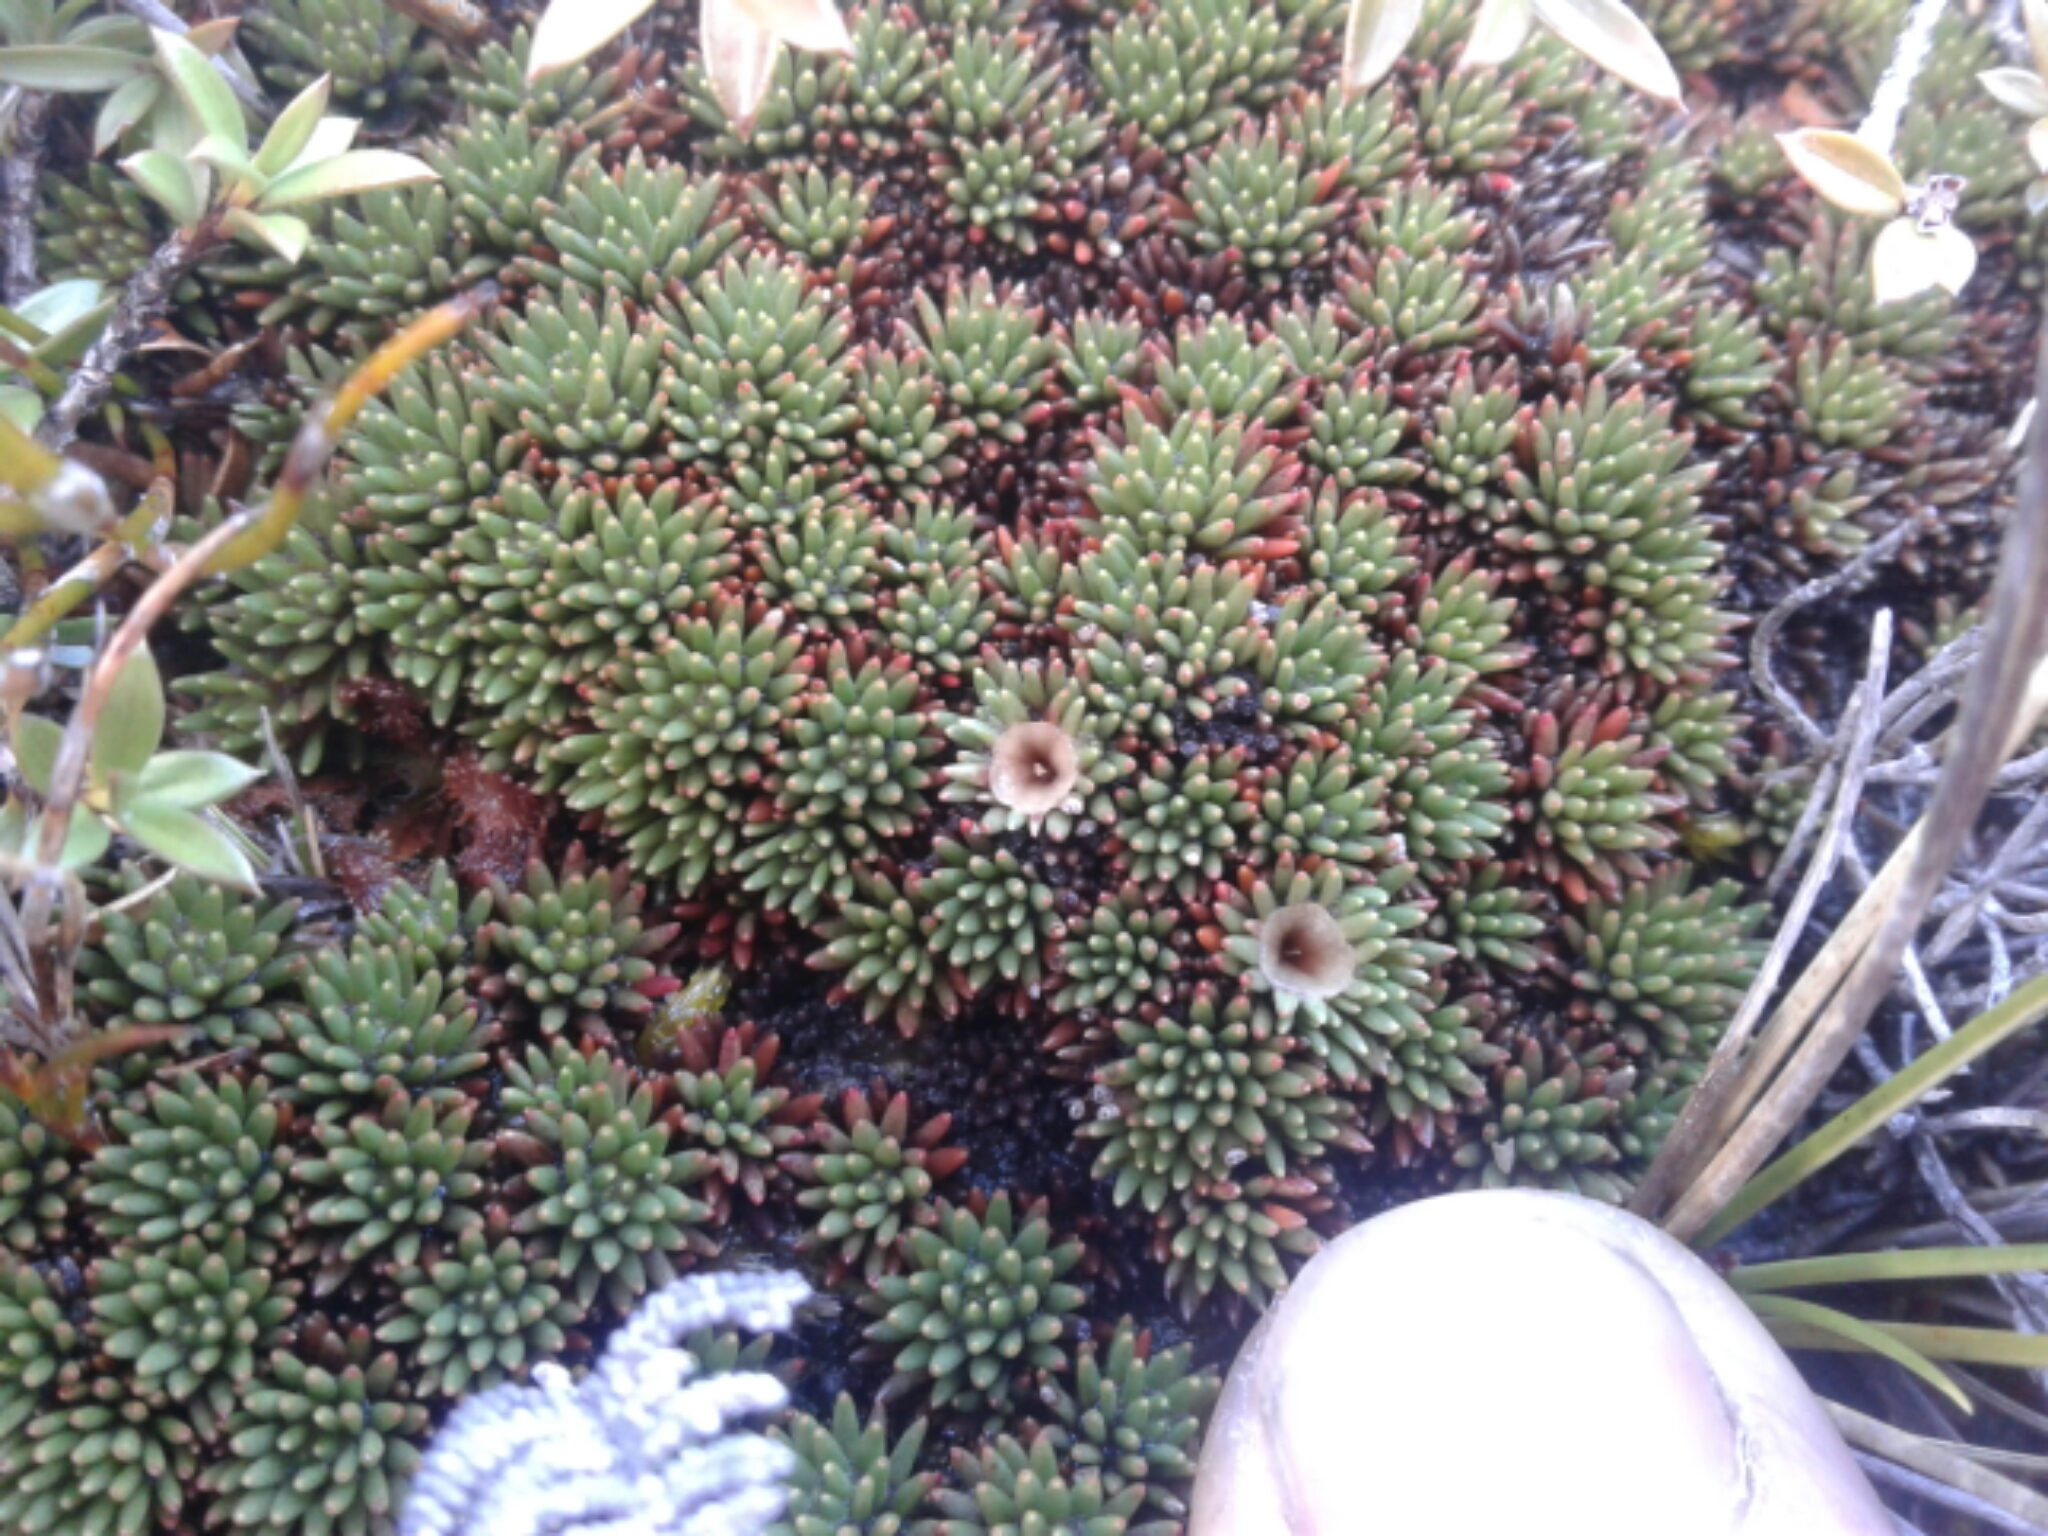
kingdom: Plantae
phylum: Tracheophyta
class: Magnoliopsida
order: Asterales
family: Stylidiaceae
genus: Donatia
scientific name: Donatia novae-zelandiae
